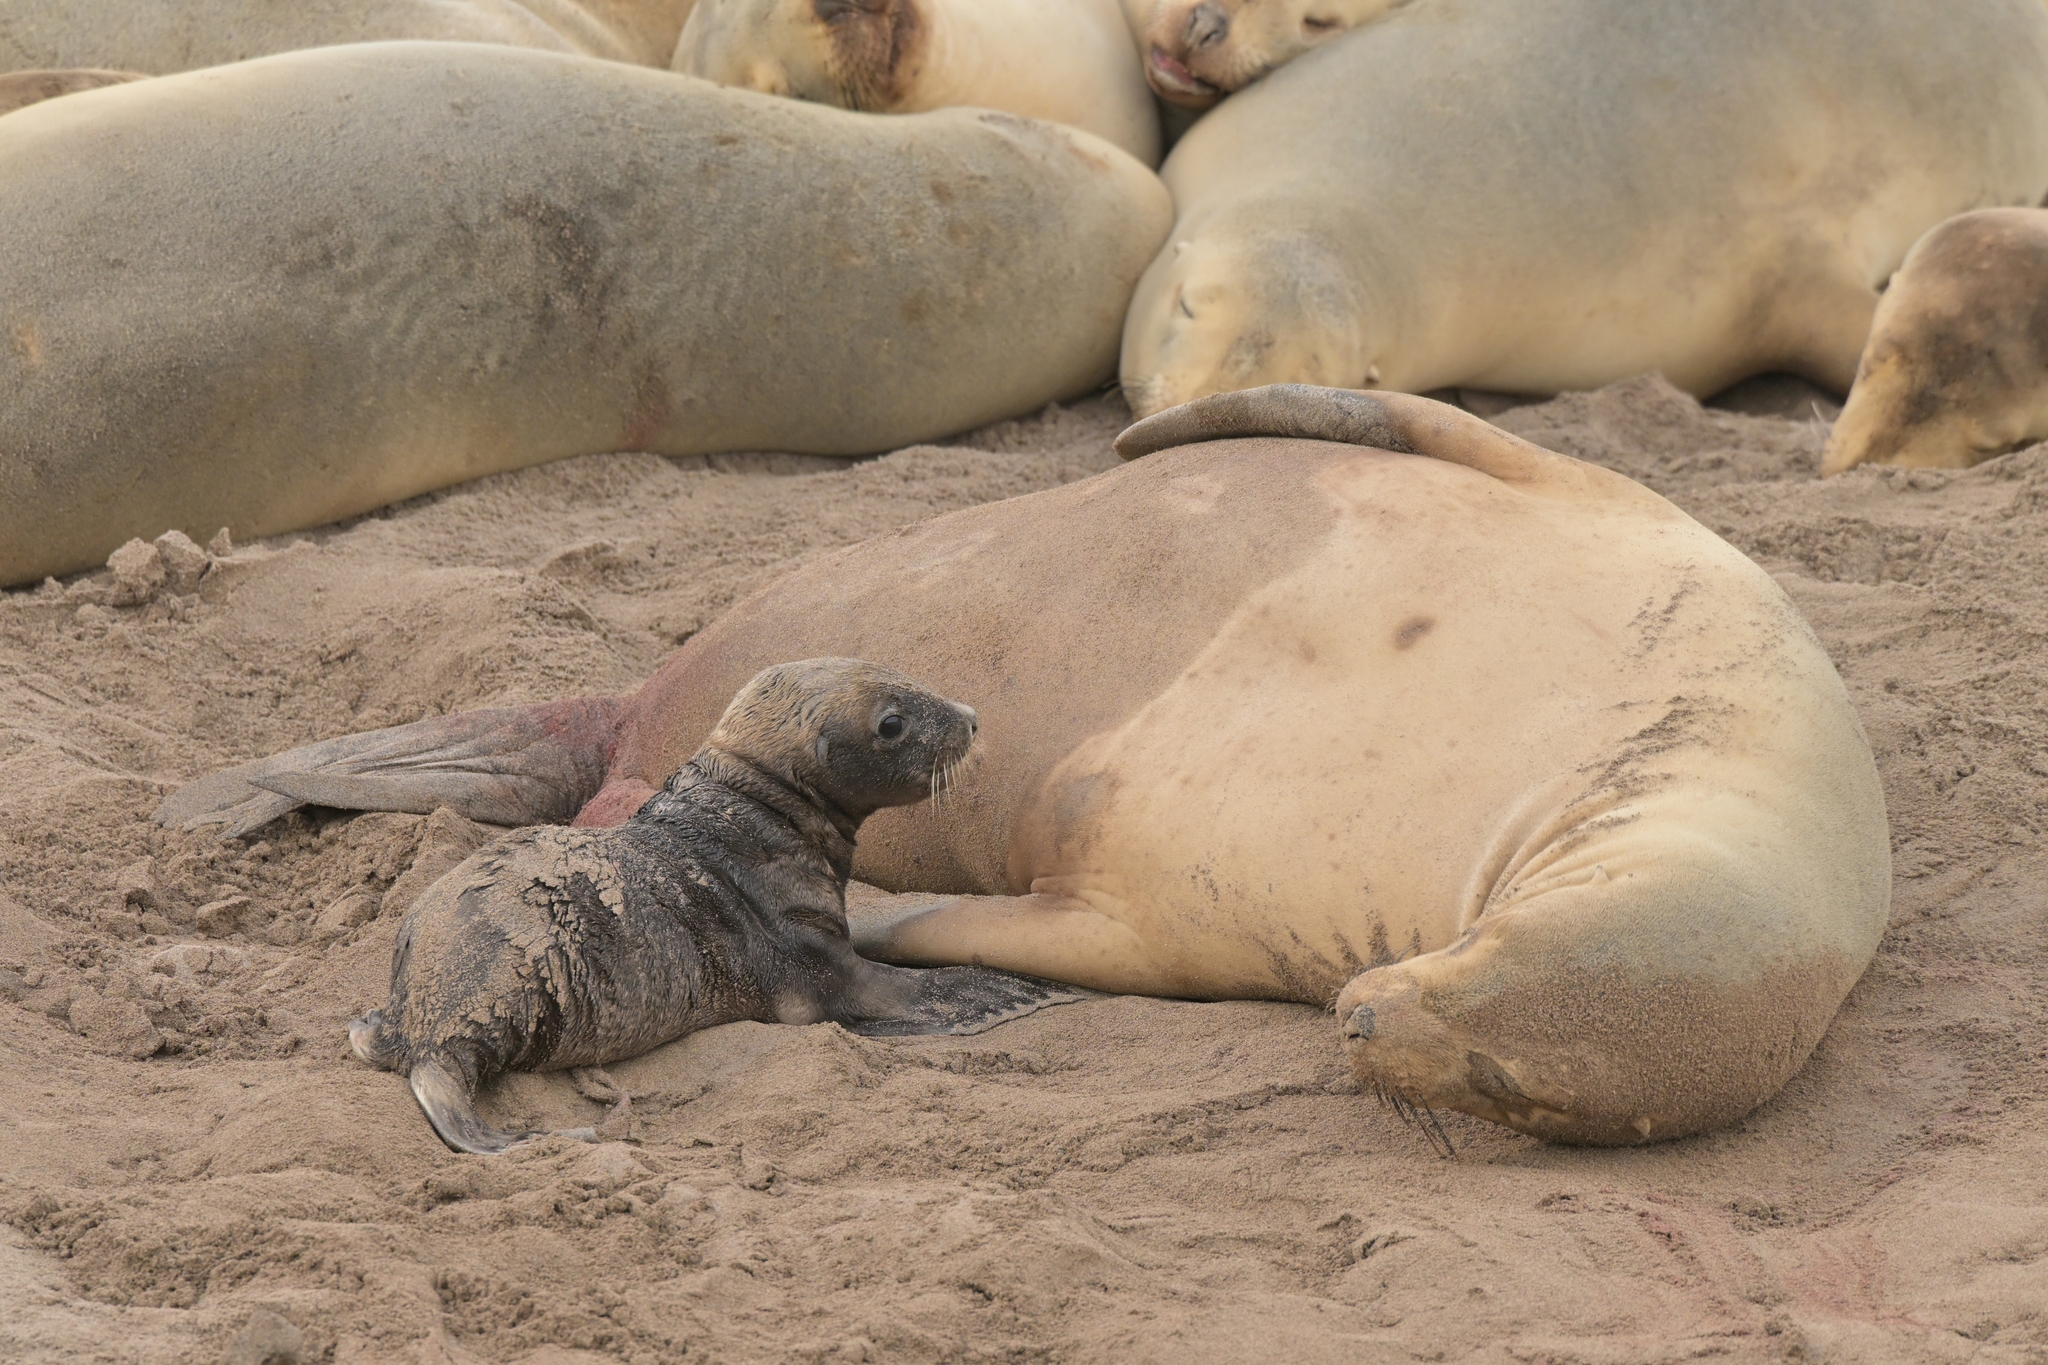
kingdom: Animalia
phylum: Chordata
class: Mammalia
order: Carnivora
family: Otariidae
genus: Phocarctos
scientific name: Phocarctos hookeri
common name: New zealand sea lion
